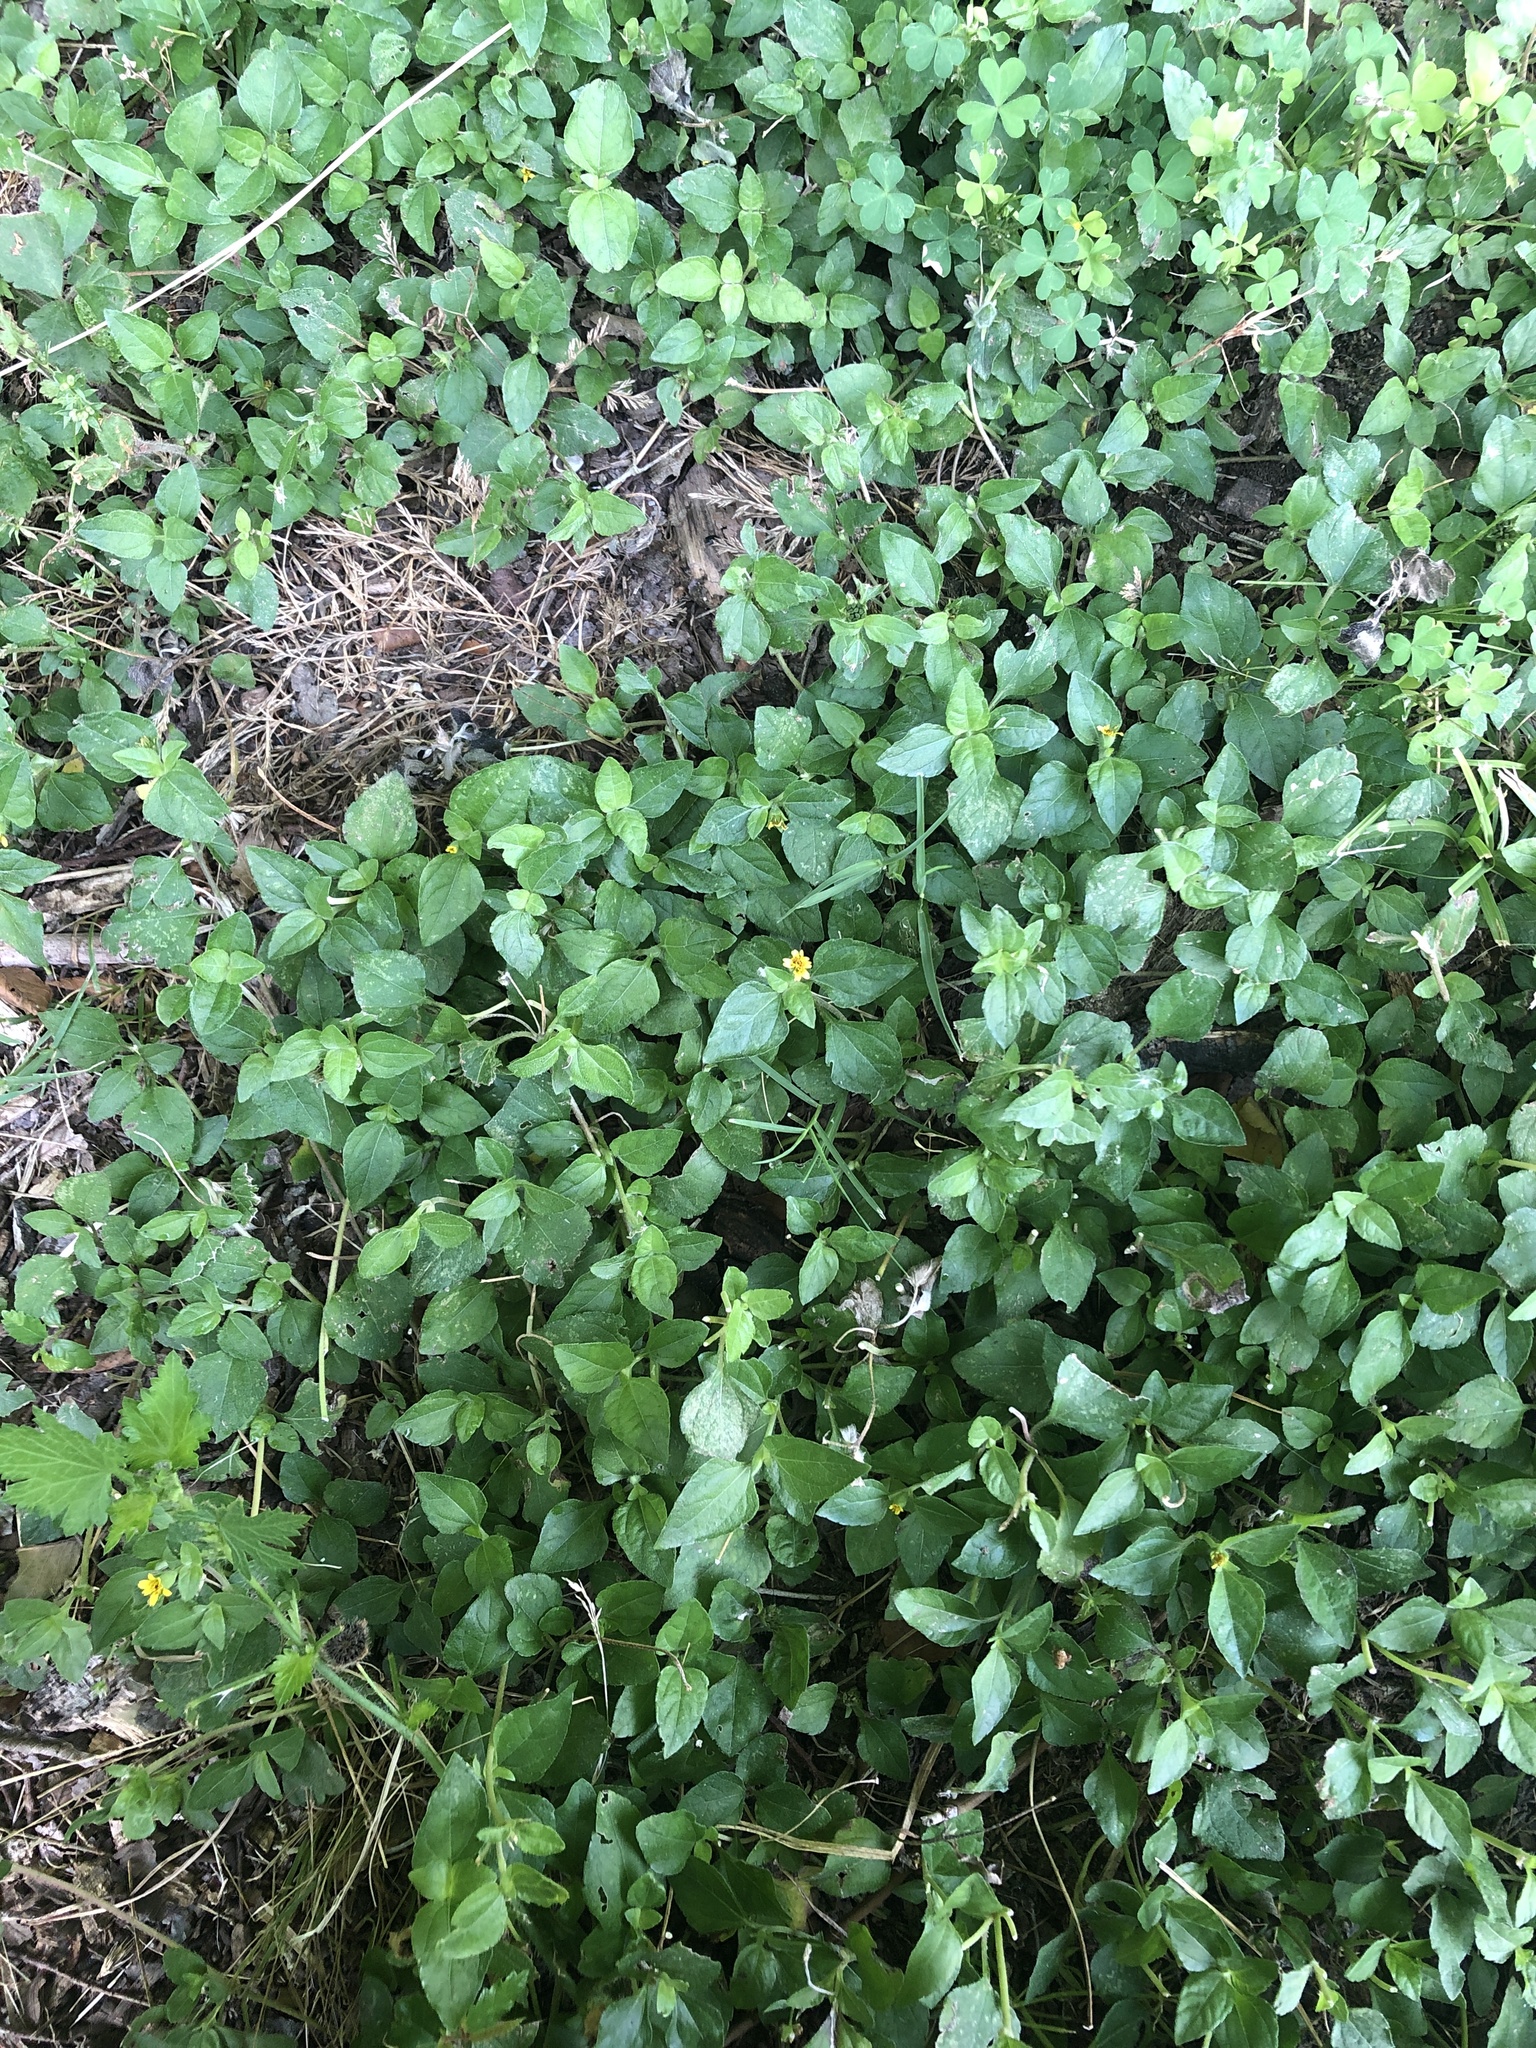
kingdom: Plantae
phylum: Tracheophyta
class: Magnoliopsida
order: Asterales
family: Asteraceae
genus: Calyptocarpus
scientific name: Calyptocarpus vialis
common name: Straggler daisy
